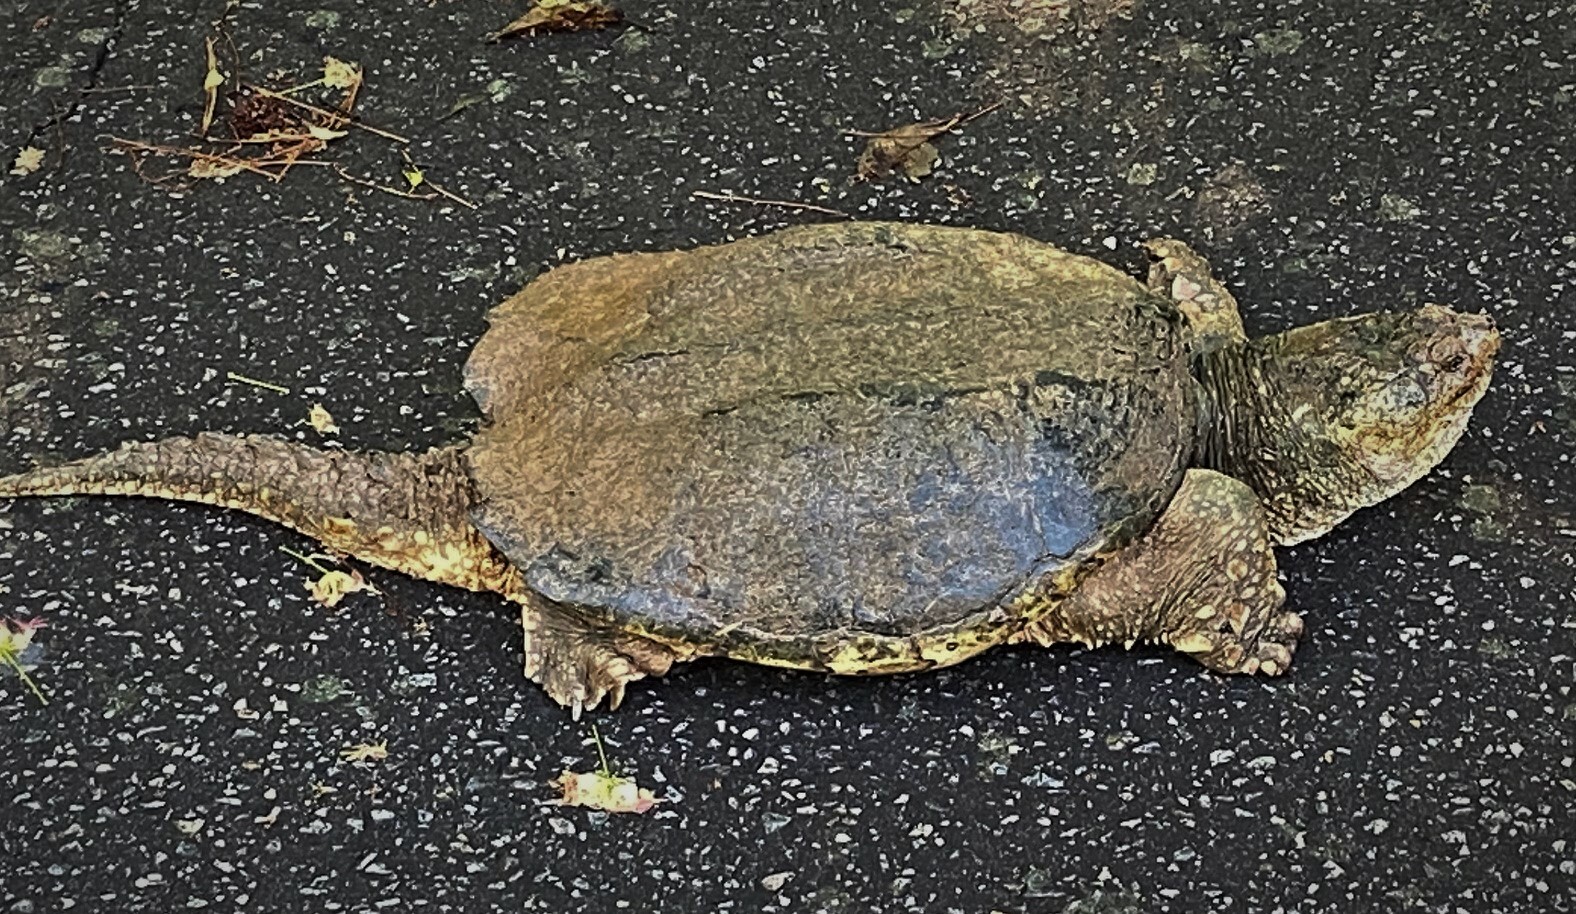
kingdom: Animalia
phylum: Chordata
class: Testudines
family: Chelydridae
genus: Chelydra
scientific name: Chelydra serpentina
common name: Common snapping turtle
